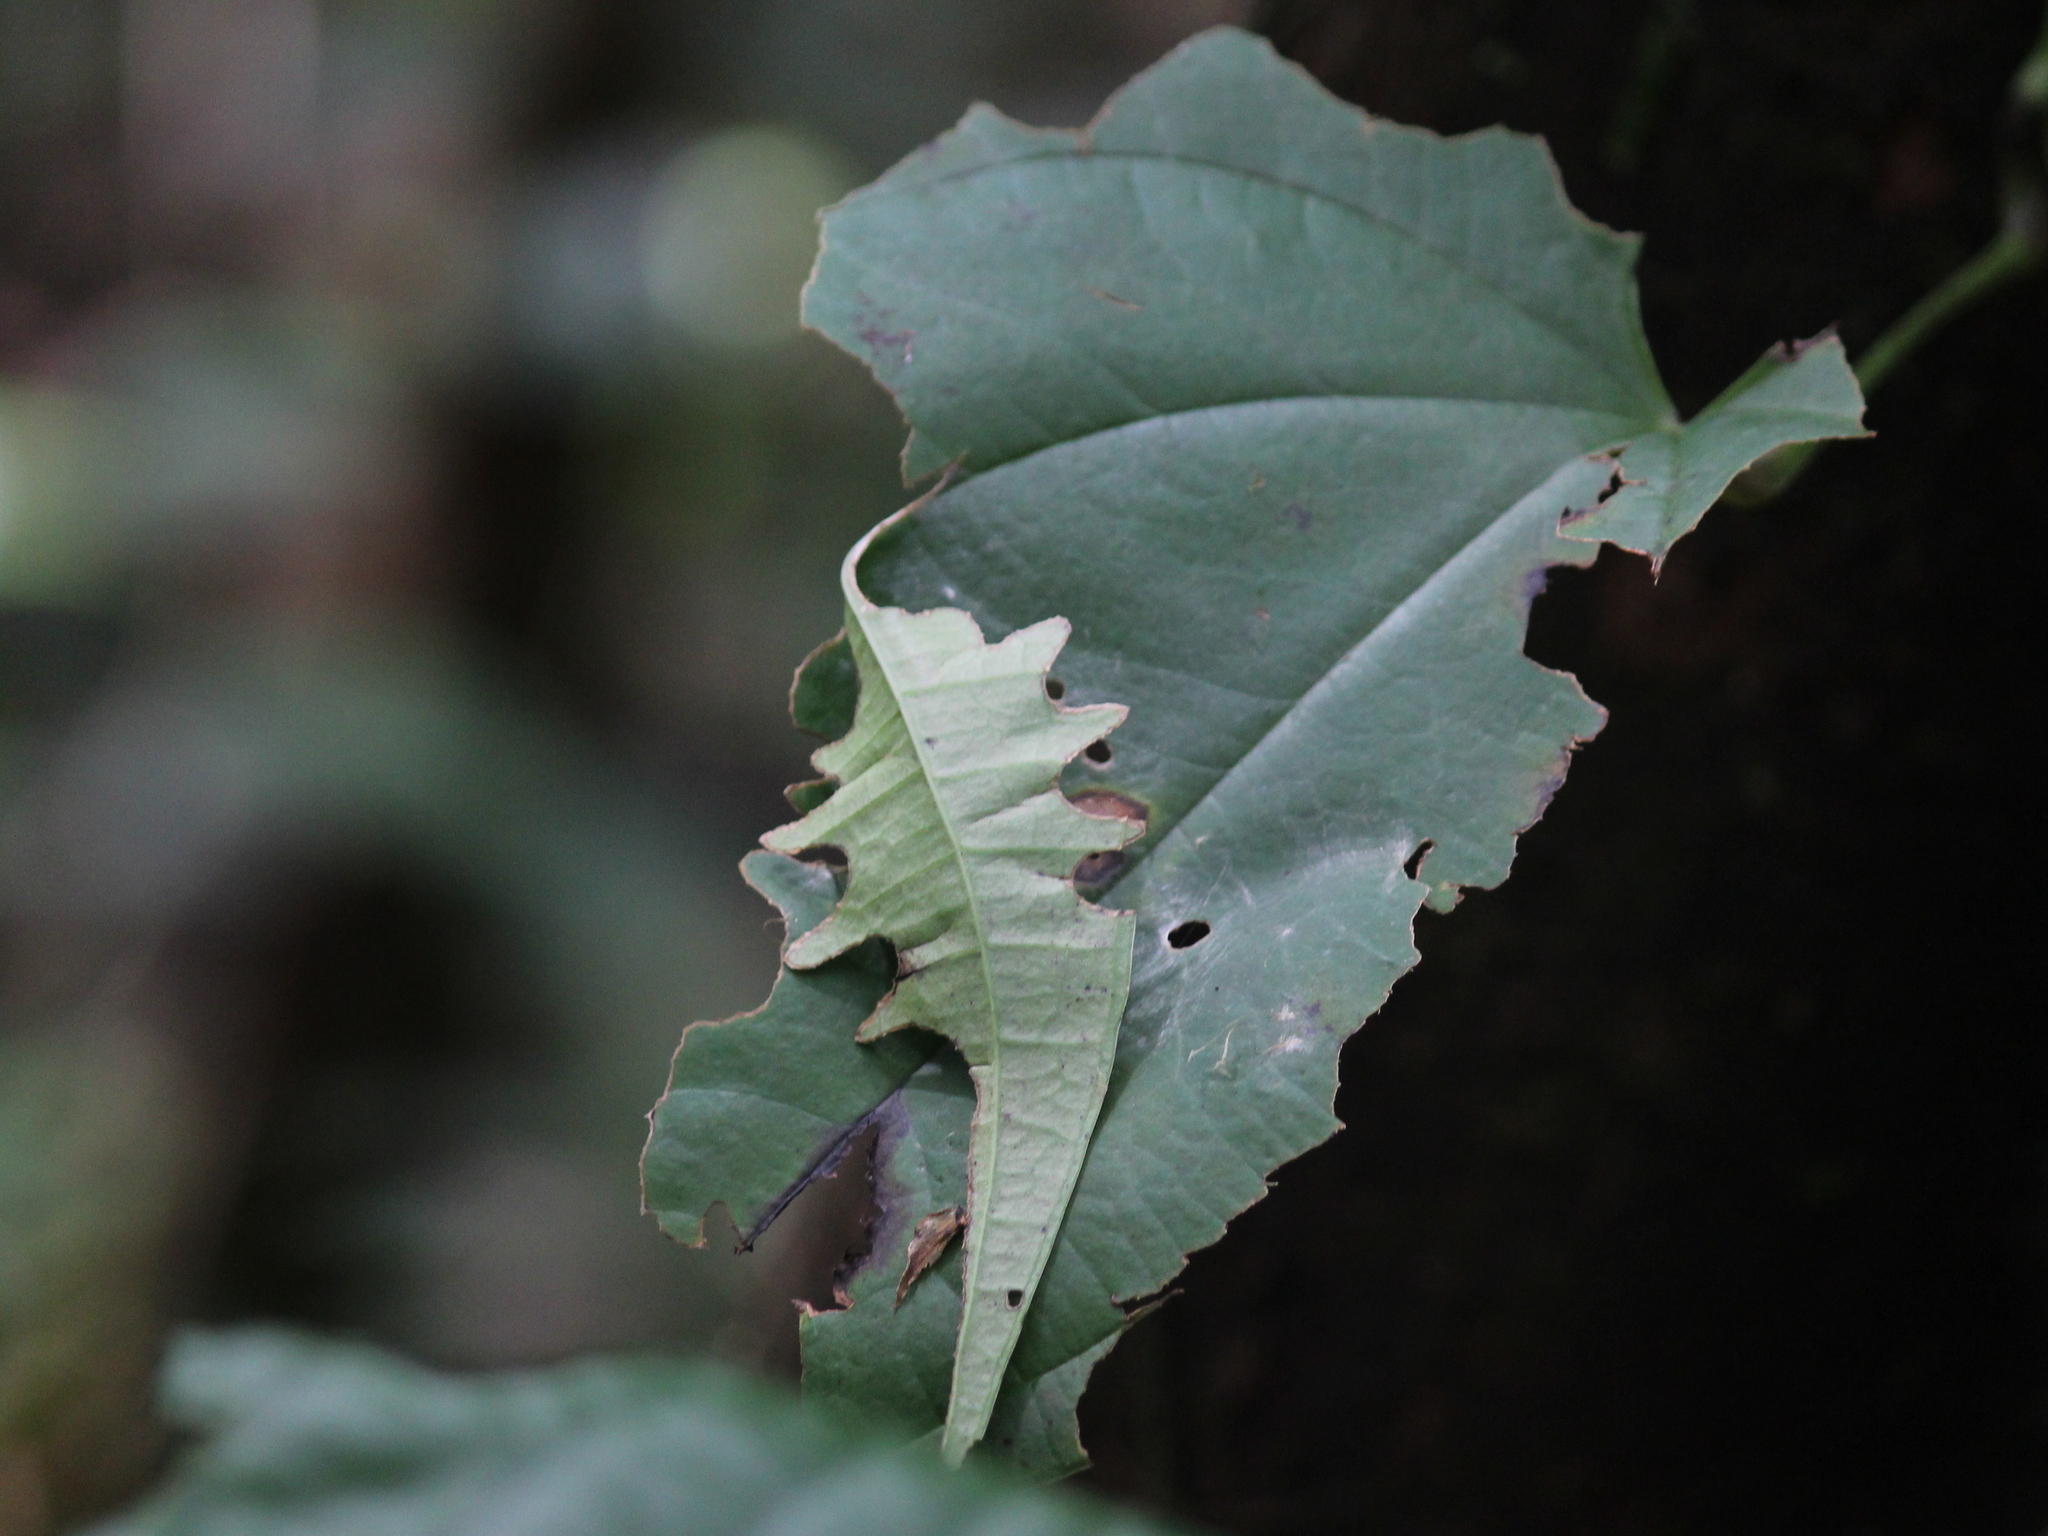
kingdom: Animalia
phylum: Arthropoda
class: Insecta
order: Lepidoptera
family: Hesperiidae
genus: Tagiades
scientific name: Tagiades litigiosa
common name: Water snow flat
